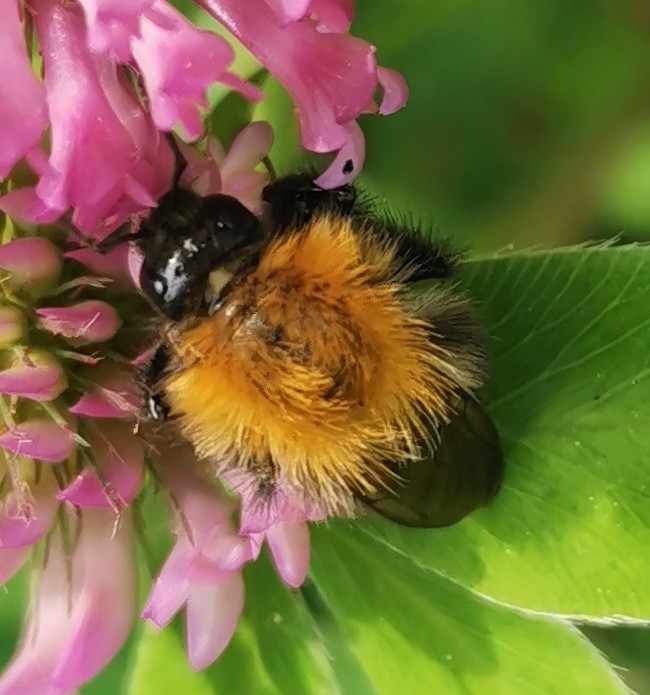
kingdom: Animalia
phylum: Arthropoda
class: Insecta
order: Hymenoptera
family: Apidae
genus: Bombus
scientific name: Bombus pascuorum
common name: Common carder bee
